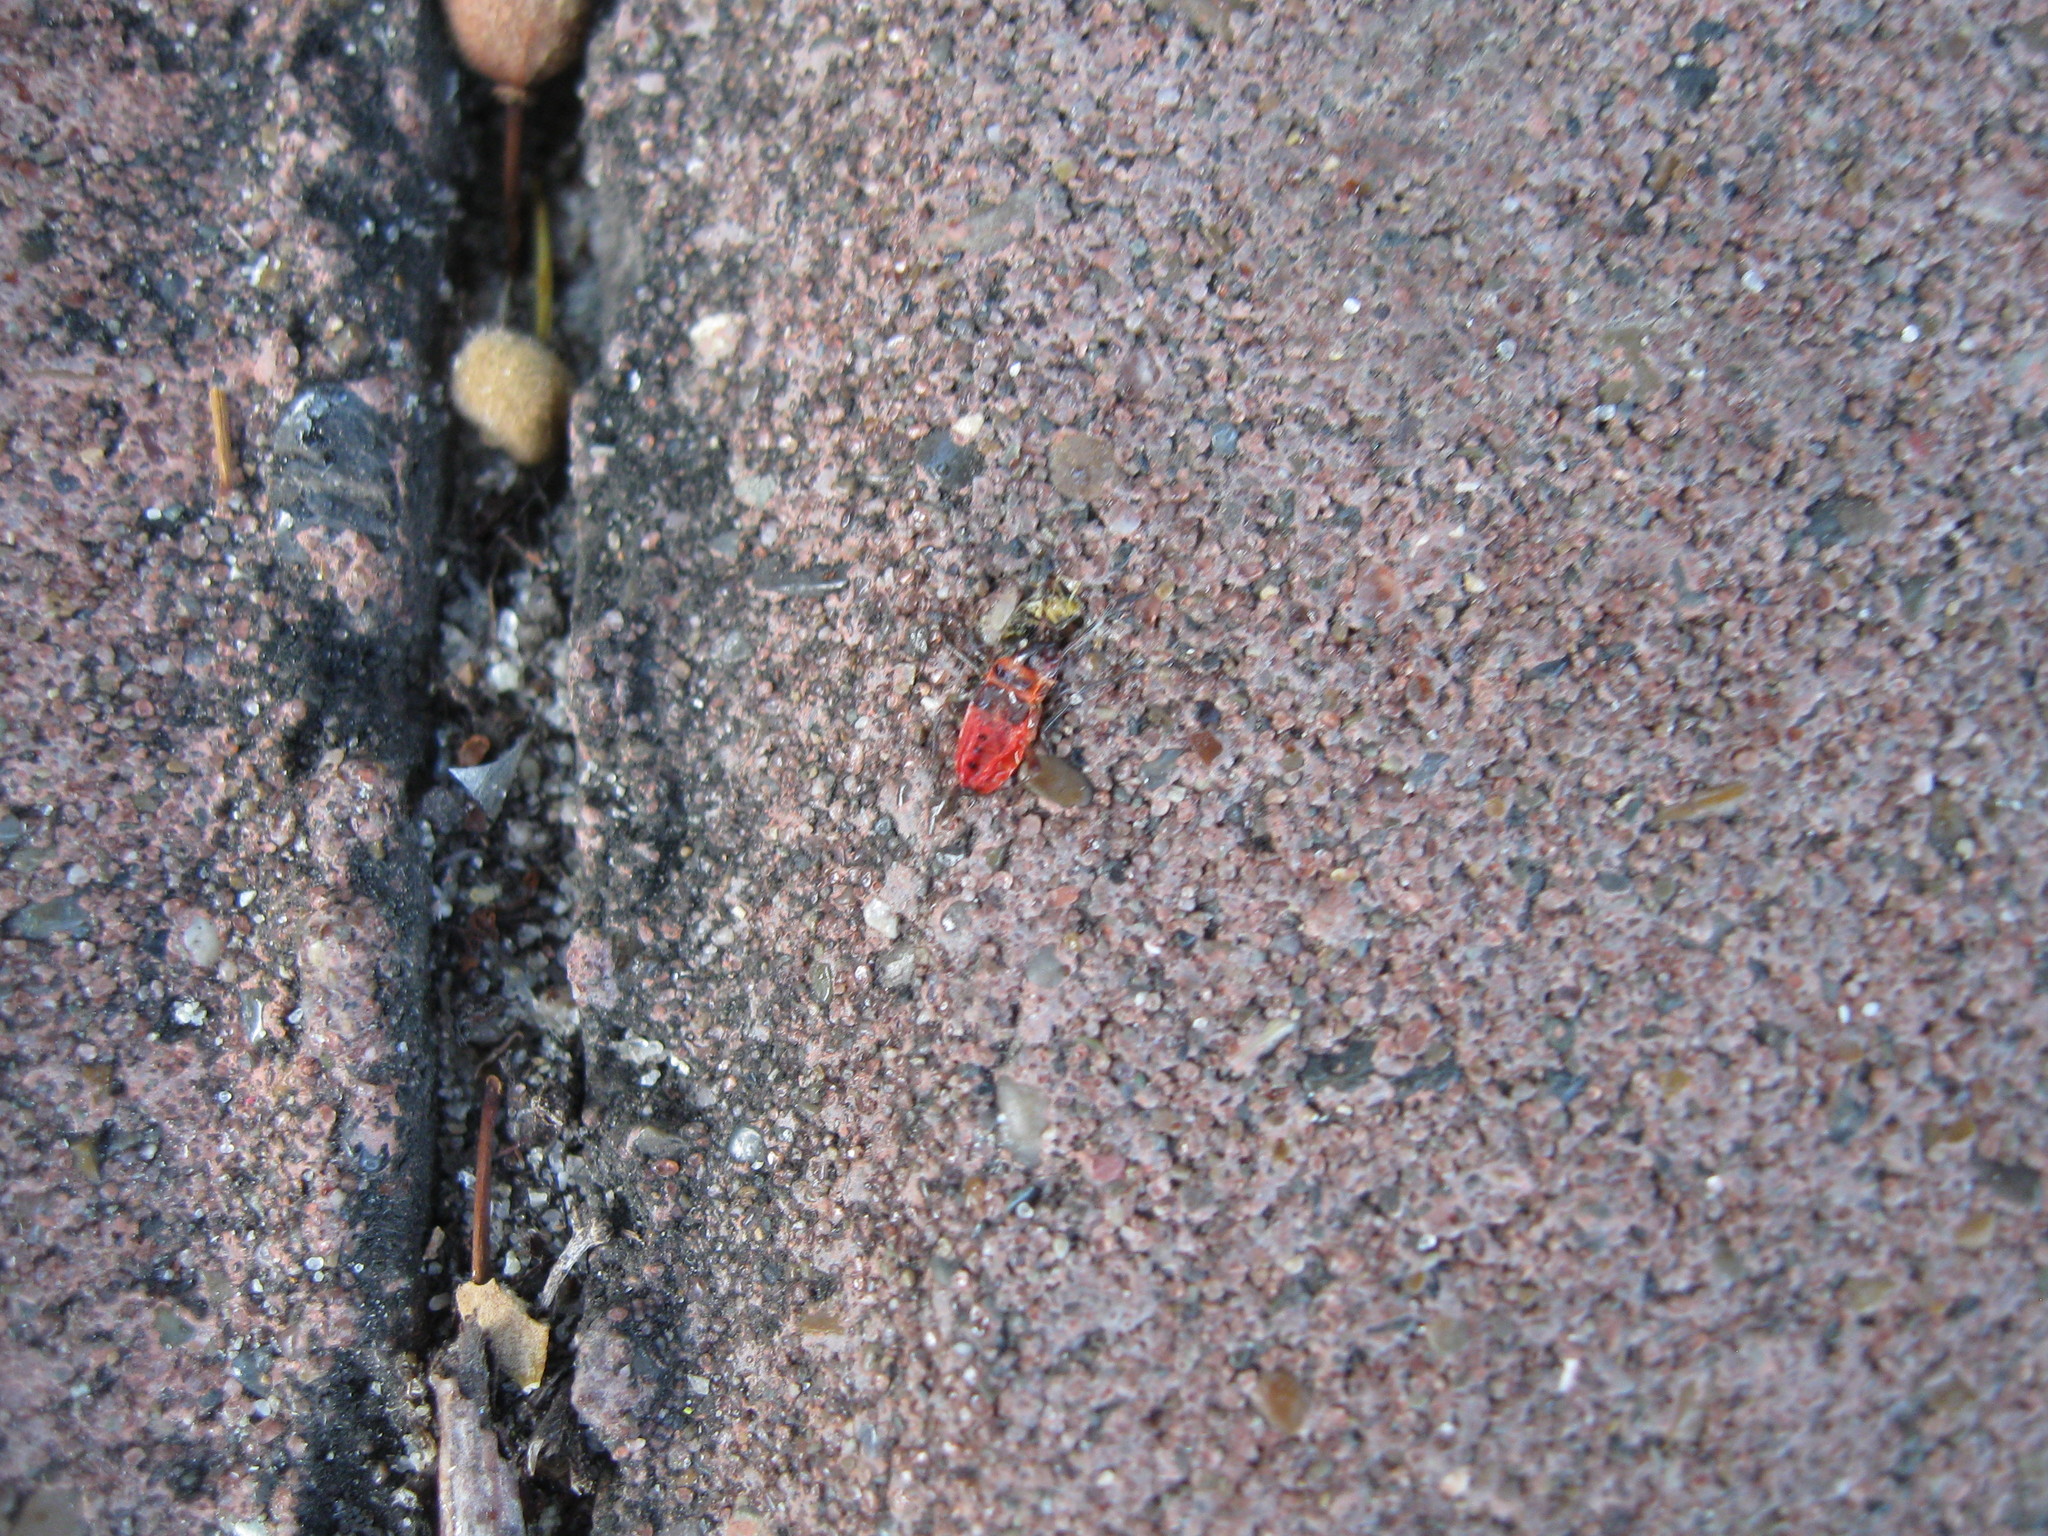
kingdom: Animalia
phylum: Arthropoda
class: Insecta
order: Hemiptera
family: Pyrrhocoridae
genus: Pyrrhocoris
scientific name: Pyrrhocoris apterus
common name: Firebug
